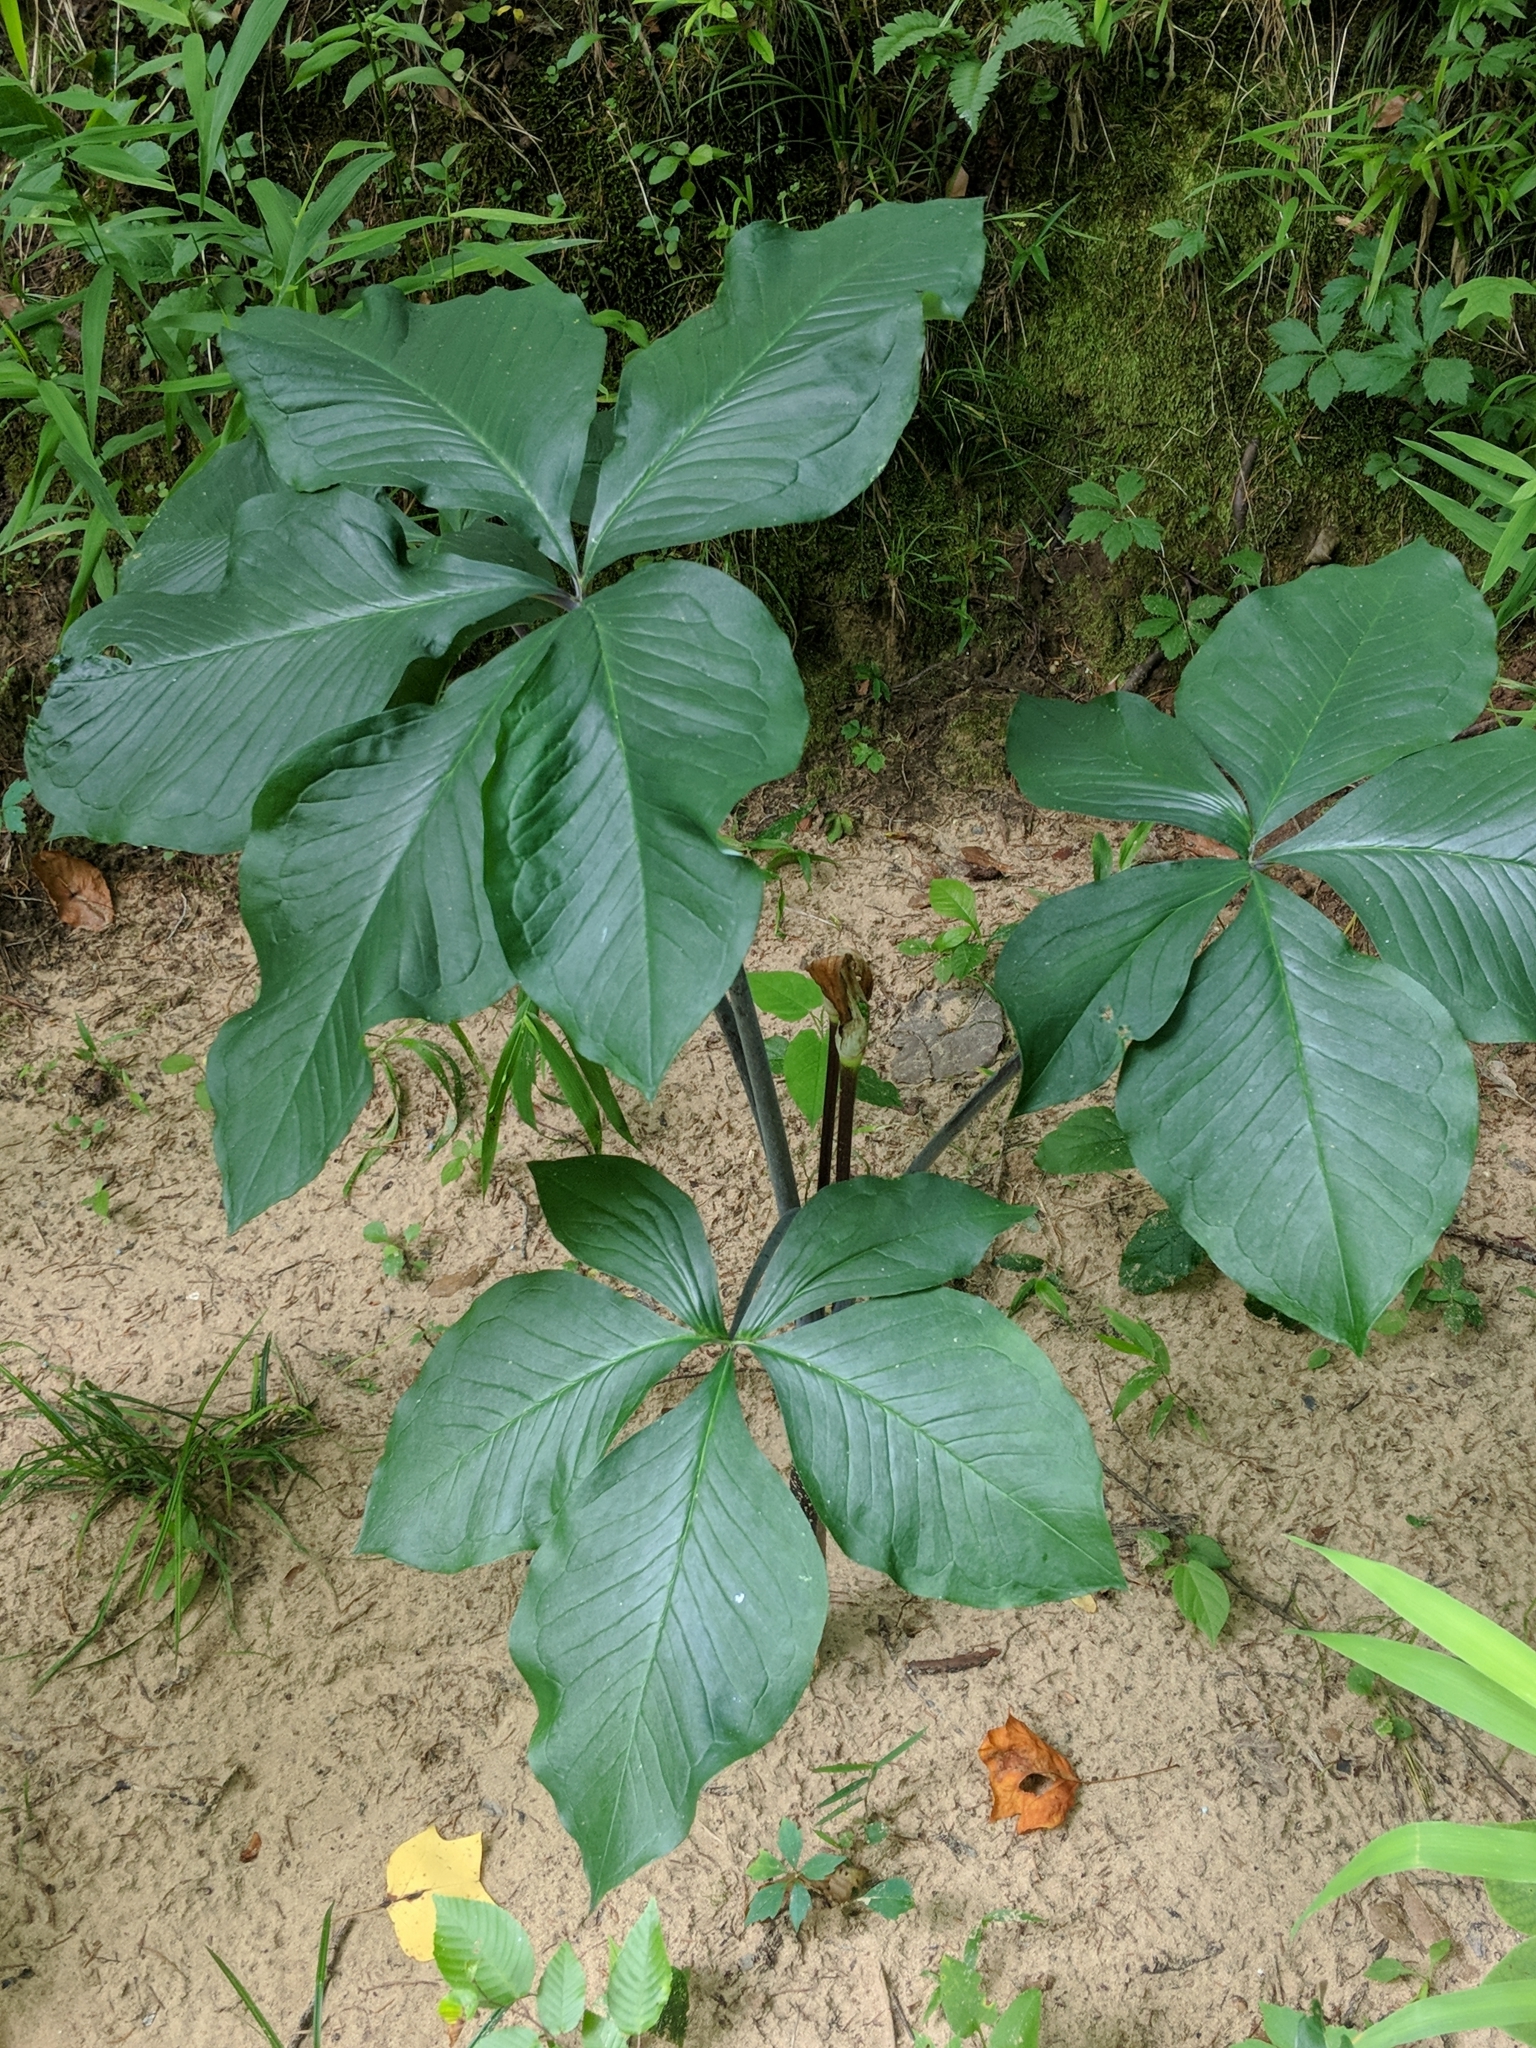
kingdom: Plantae
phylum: Tracheophyta
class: Liliopsida
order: Alismatales
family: Araceae
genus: Arisaema
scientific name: Arisaema quinatum
